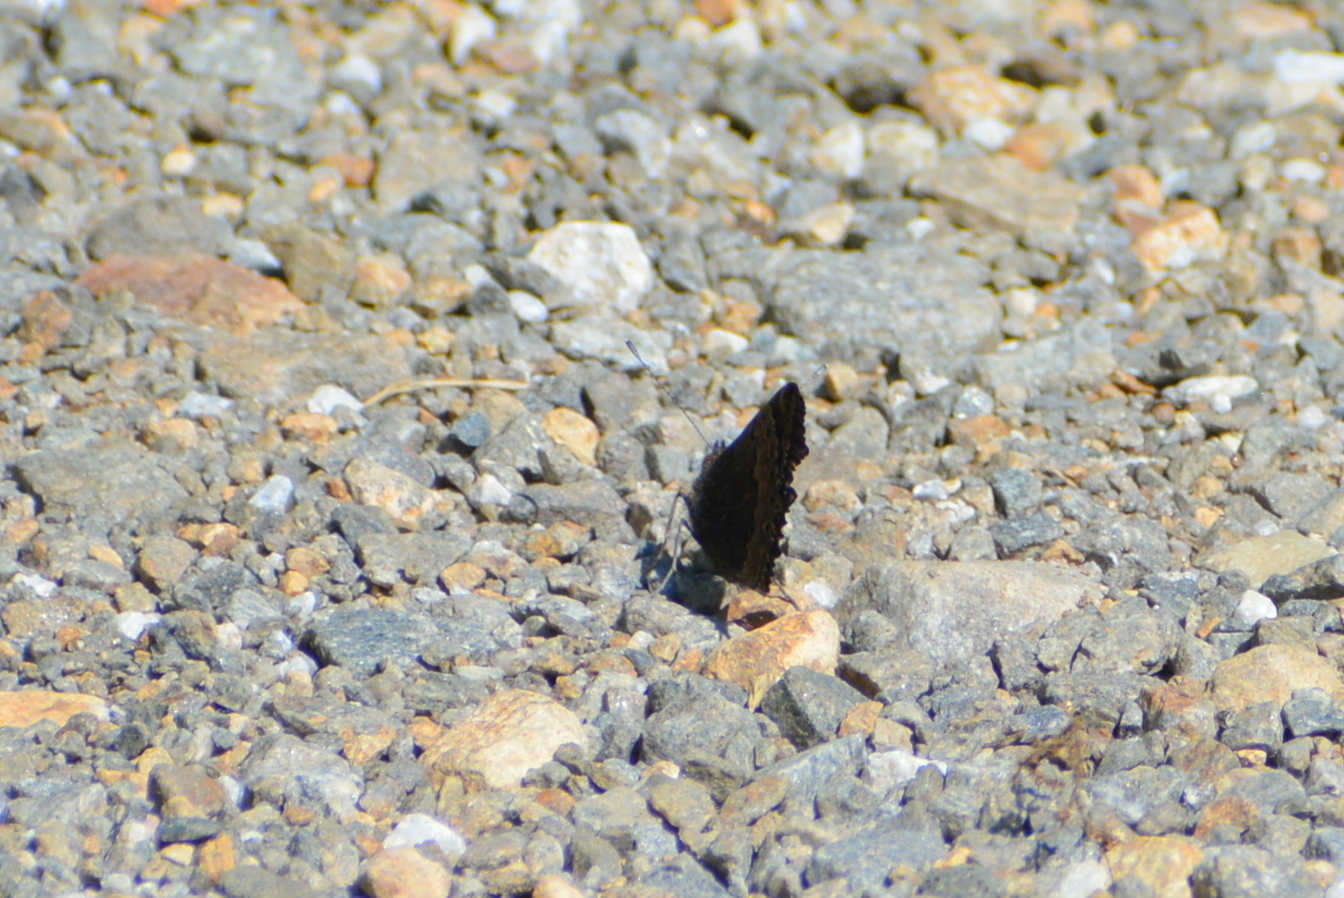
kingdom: Animalia
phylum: Arthropoda
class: Insecta
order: Lepidoptera
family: Nymphalidae
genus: Aglais
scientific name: Aglais urticae
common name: Small tortoiseshell
